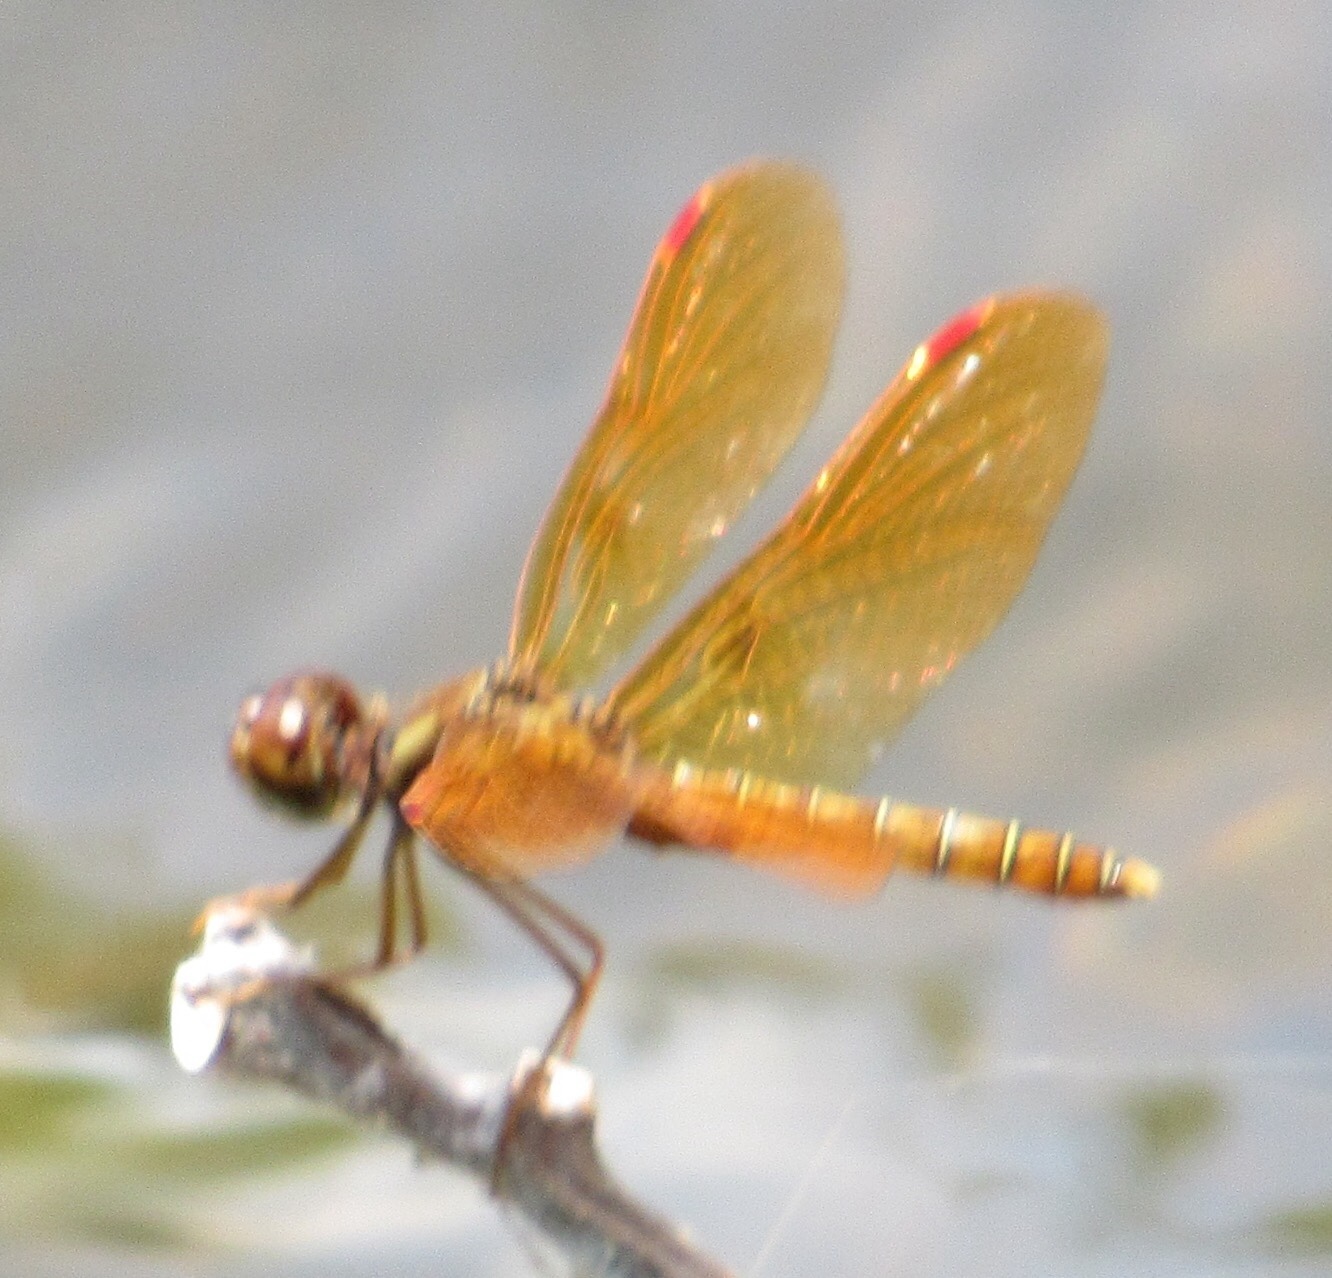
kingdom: Animalia
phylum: Arthropoda
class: Insecta
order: Odonata
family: Libellulidae
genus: Perithemis
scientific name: Perithemis tenera
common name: Eastern amberwing
